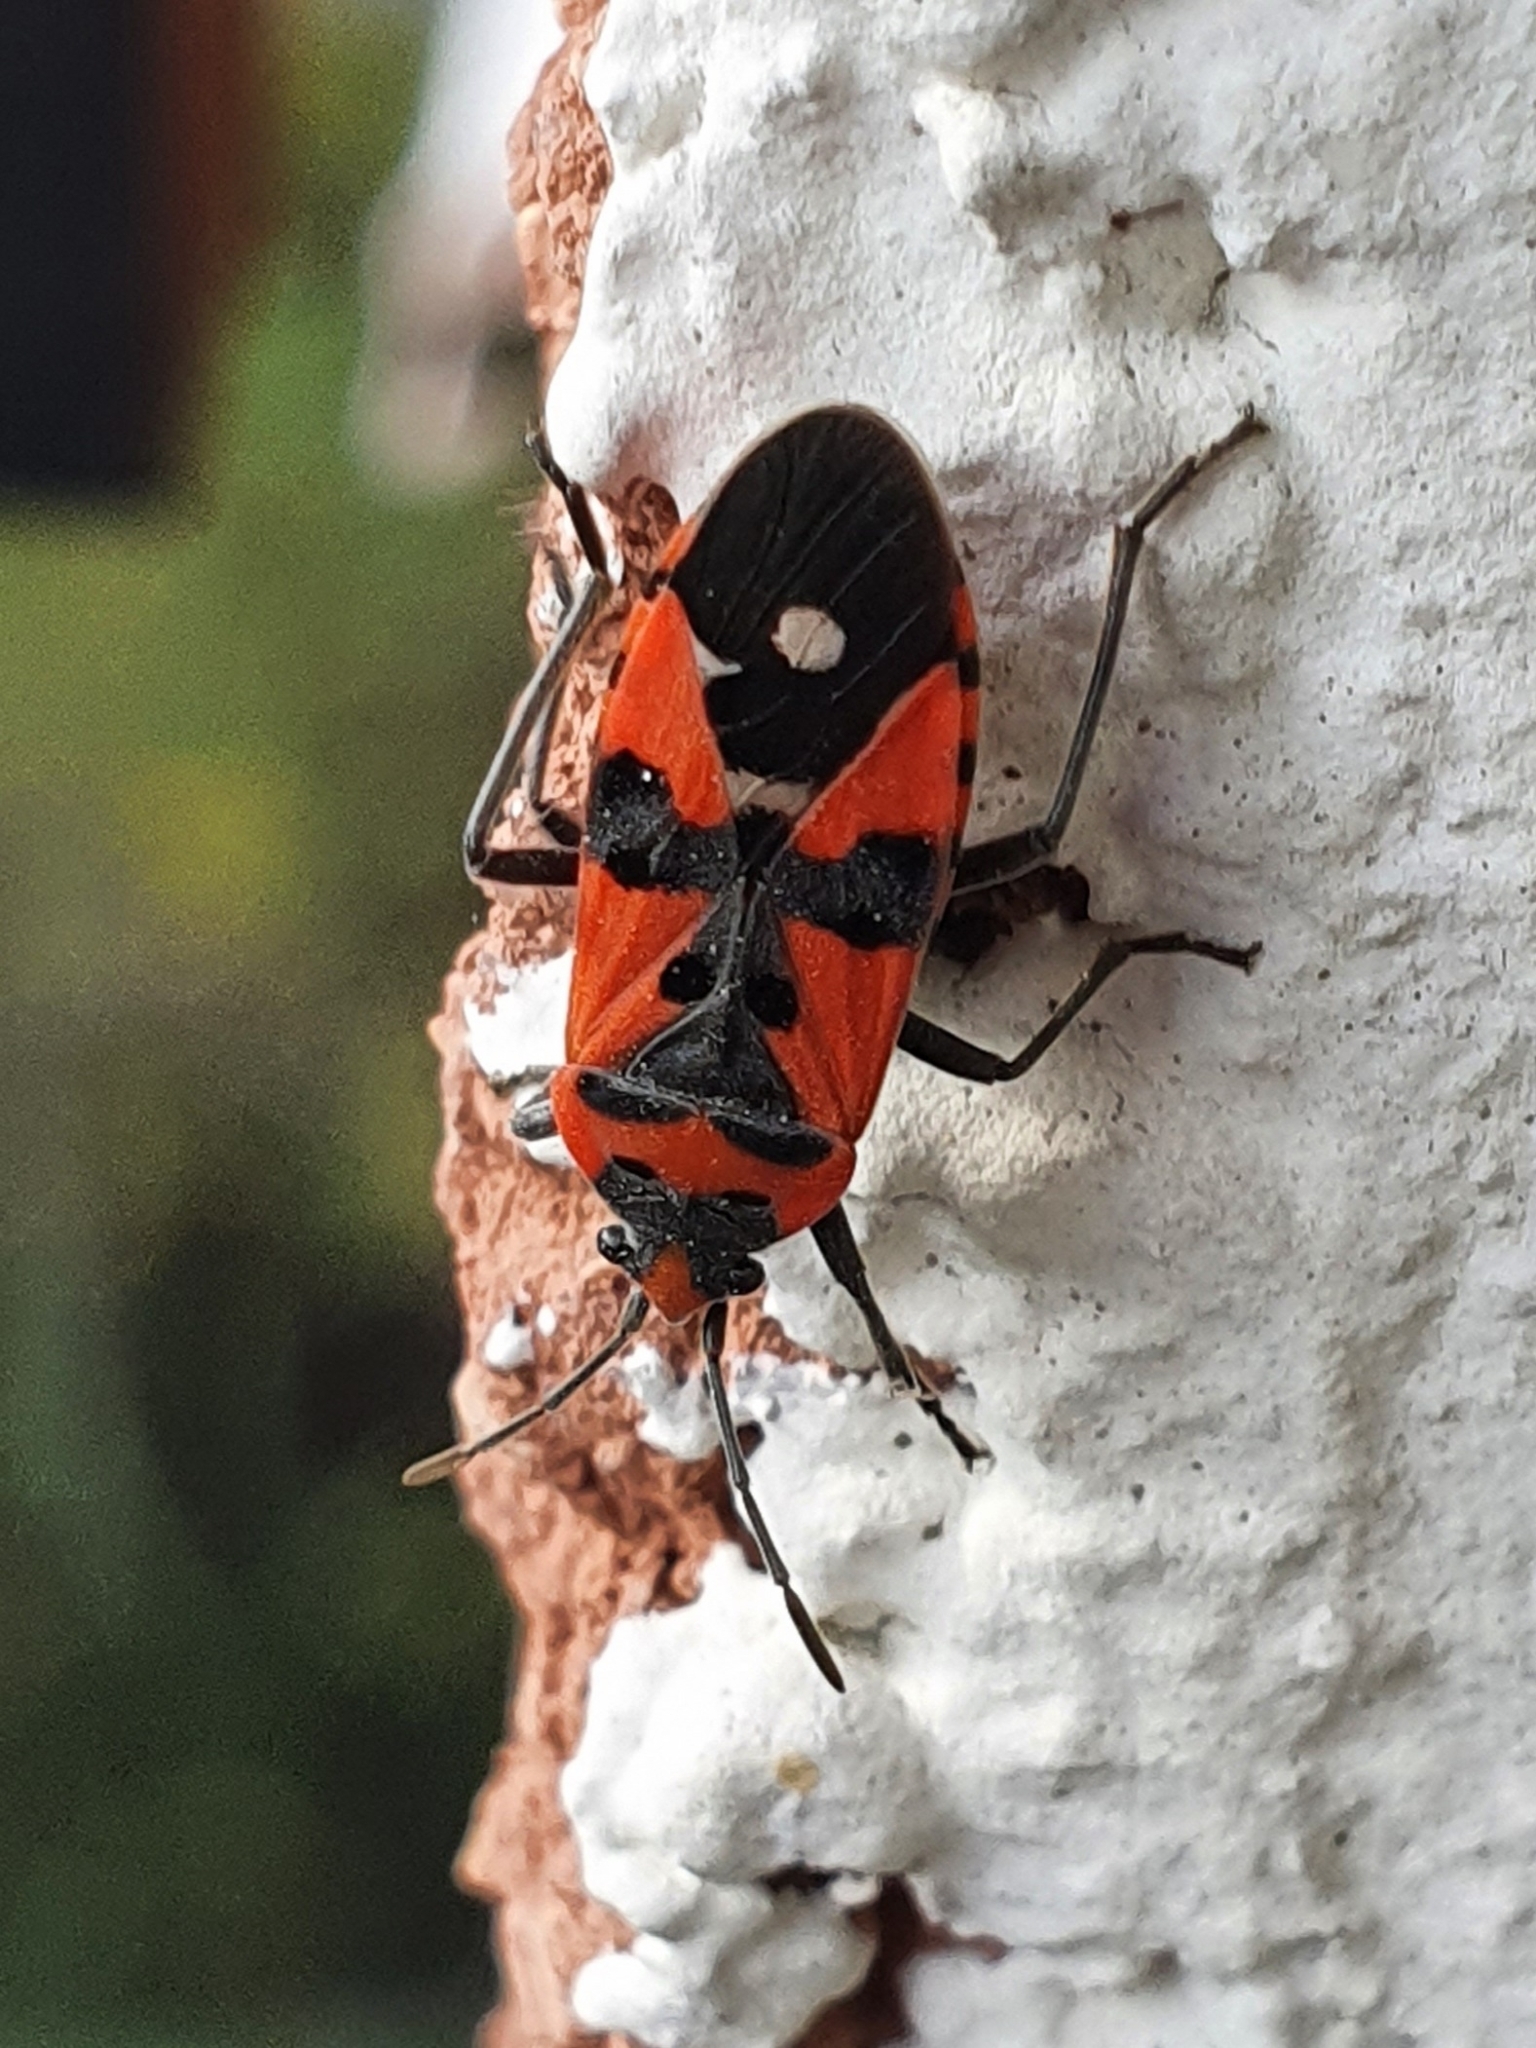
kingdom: Animalia
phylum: Arthropoda
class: Insecta
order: Hemiptera
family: Lygaeidae
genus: Lygaeus
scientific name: Lygaeus equestris
